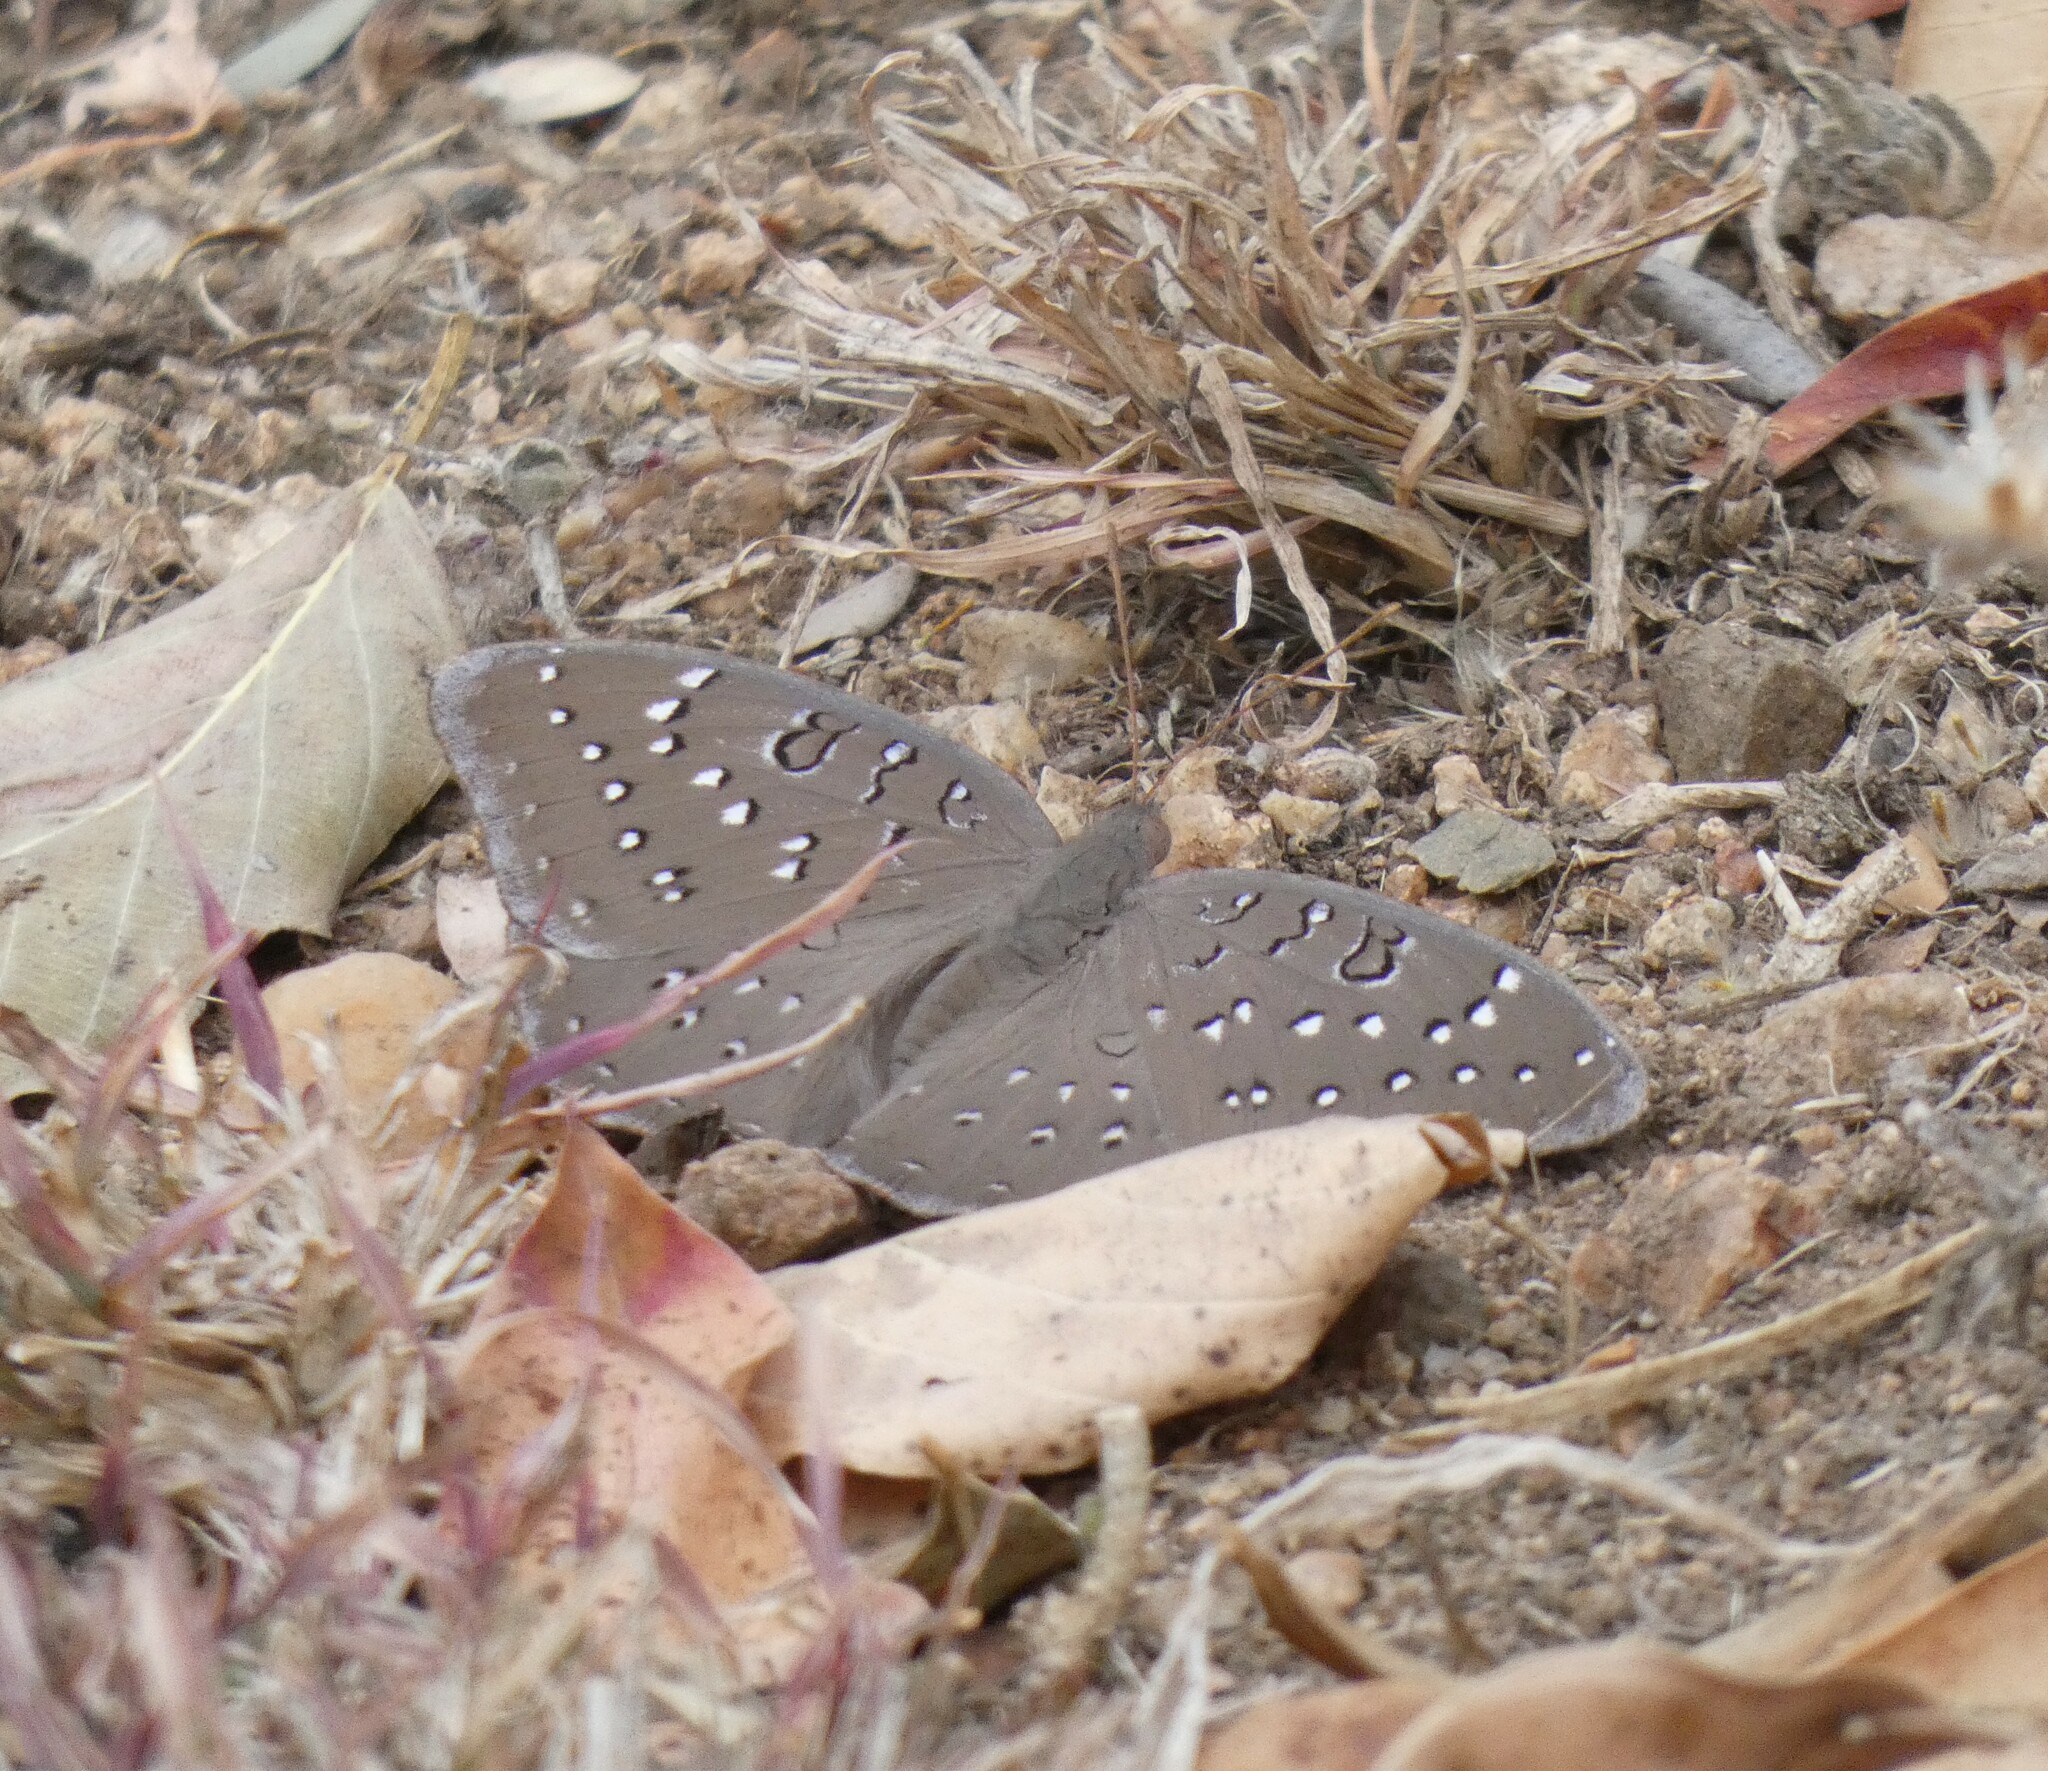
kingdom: Animalia
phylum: Arthropoda
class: Insecta
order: Lepidoptera
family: Nymphalidae
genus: Hamanumida
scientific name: Hamanumida daedalus
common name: Guinea-fowl butterfly
